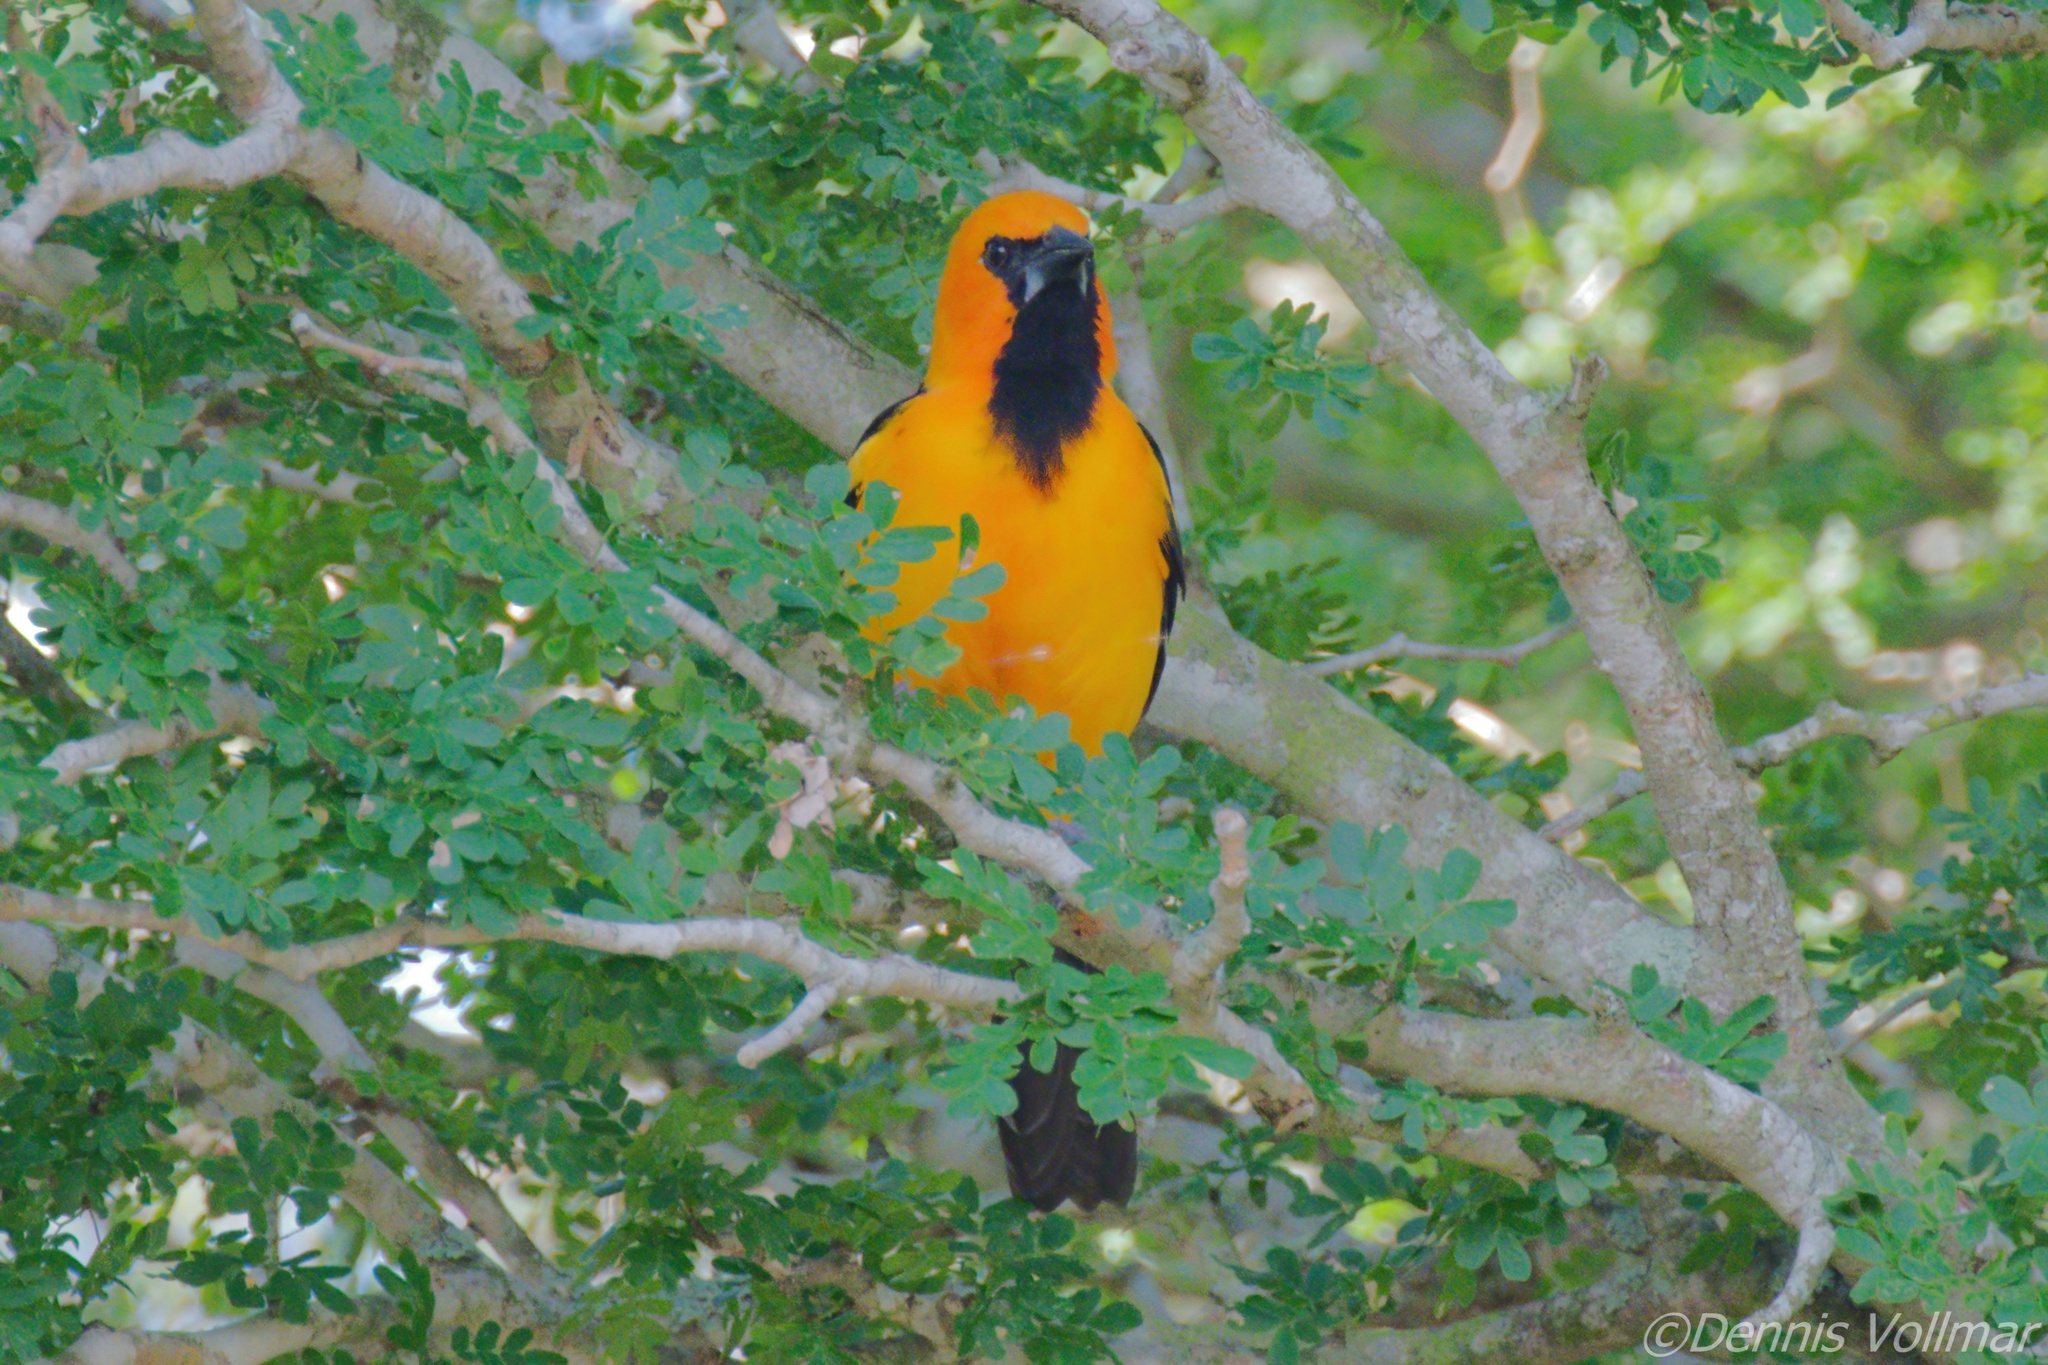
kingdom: Animalia
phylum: Chordata
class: Aves
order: Passeriformes
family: Icteridae
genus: Icterus
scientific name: Icterus gularis
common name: Altamira oriole
